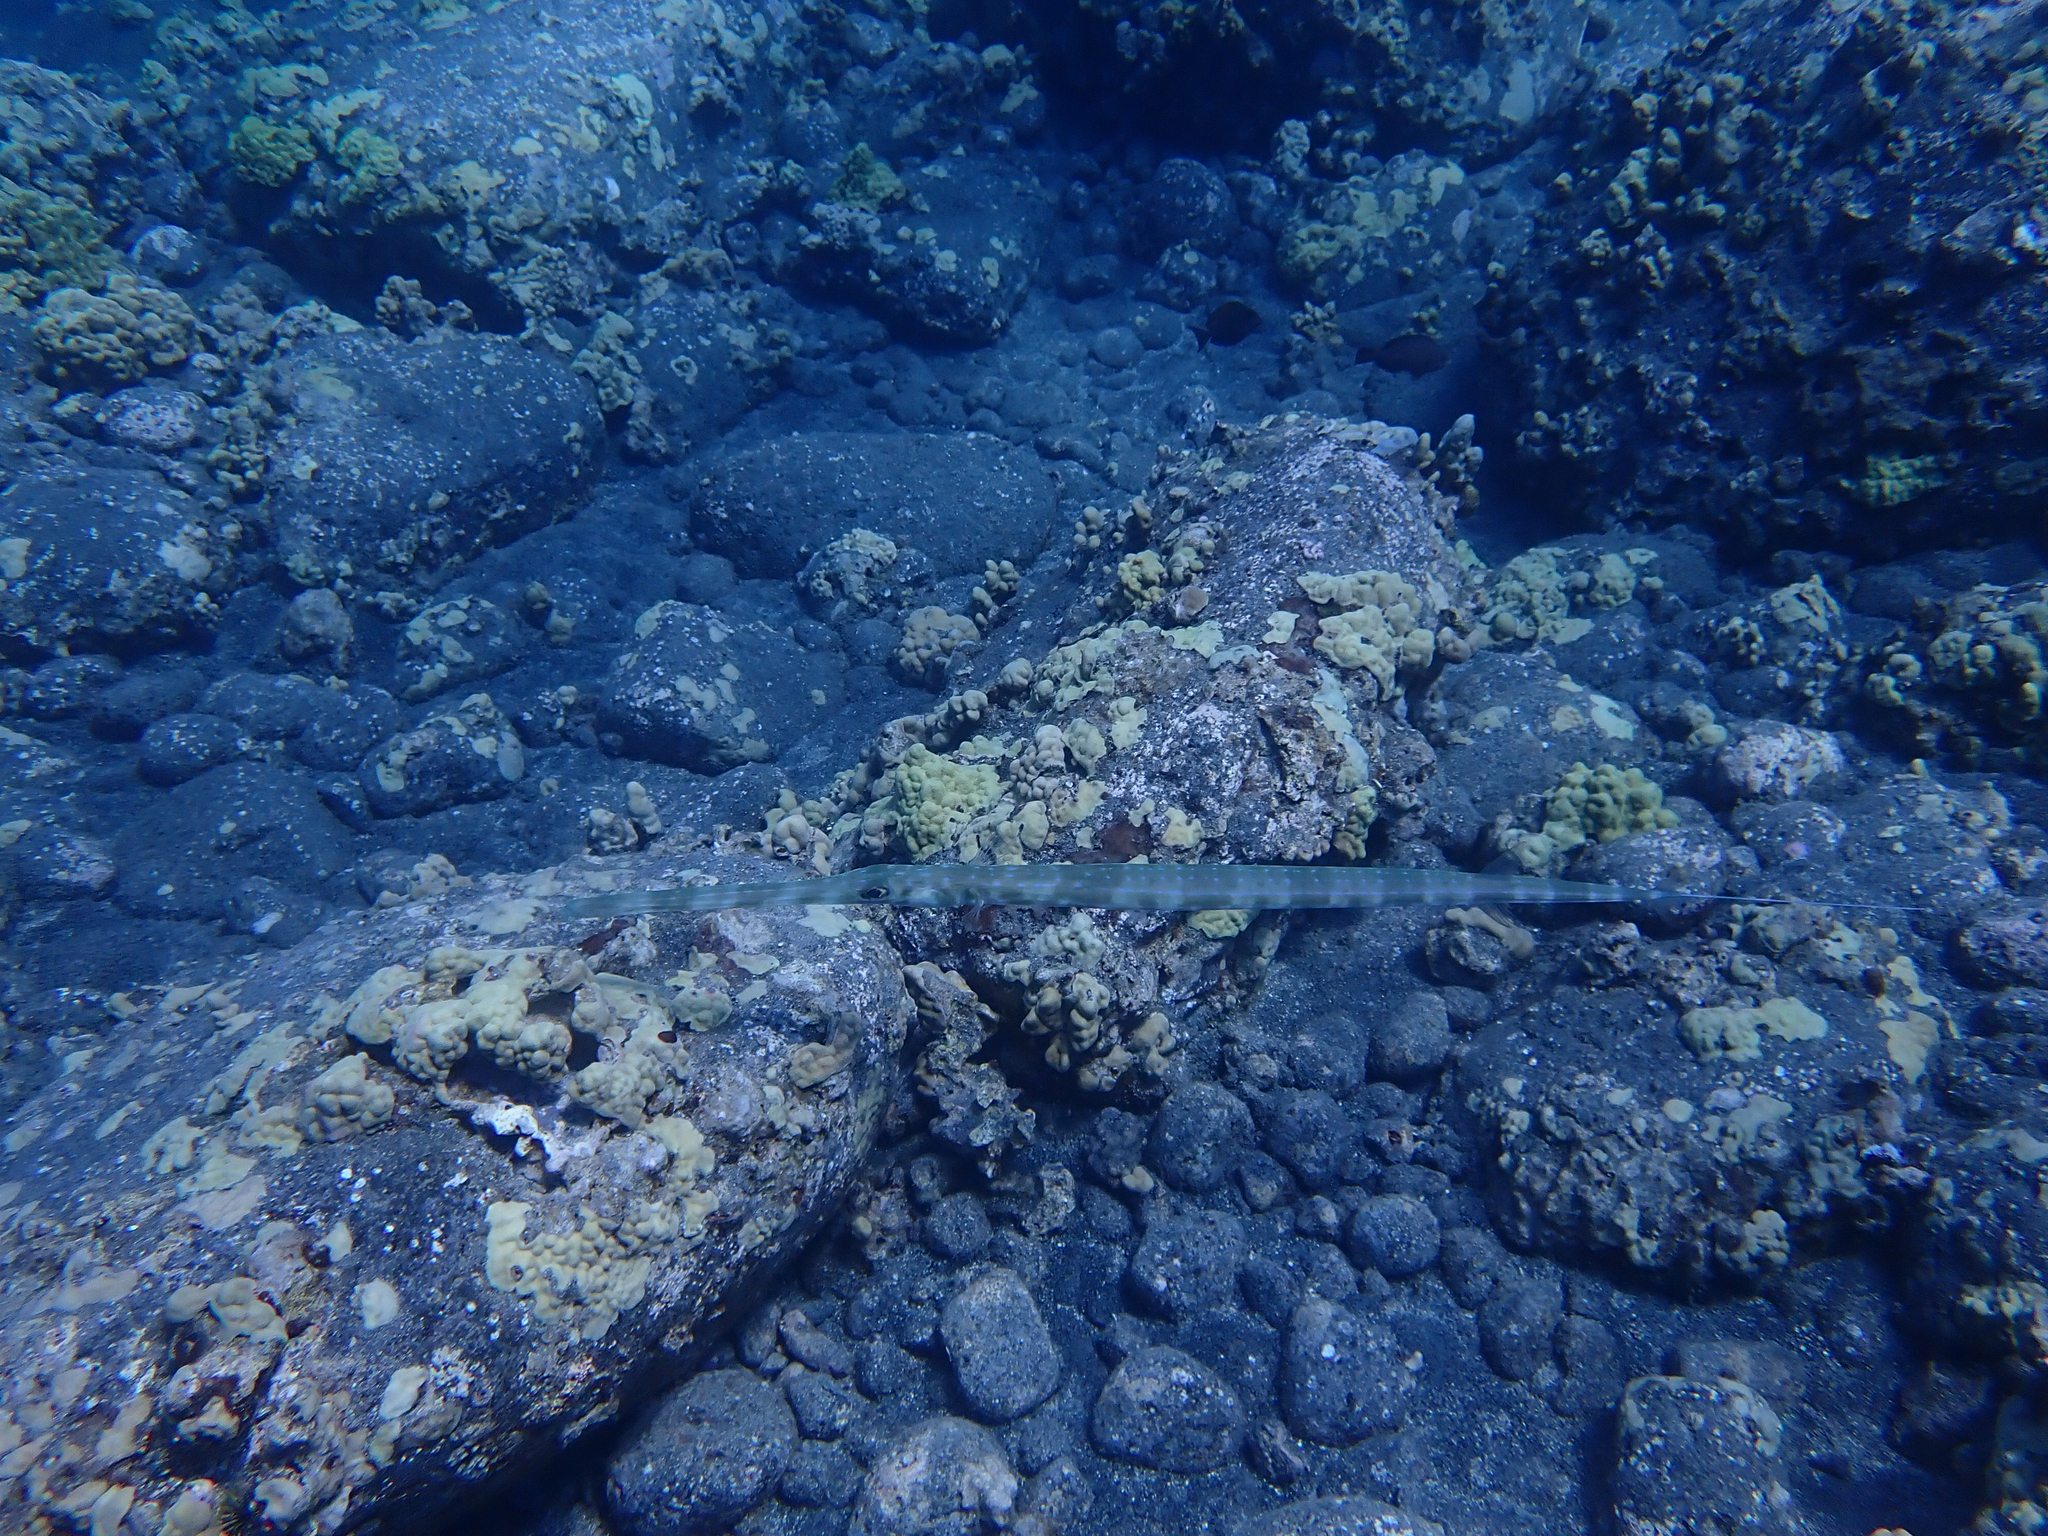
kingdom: Animalia
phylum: Chordata
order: Syngnathiformes
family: Fistulariidae
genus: Fistularia
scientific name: Fistularia commersonii
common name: Bluespotted cornetfish
